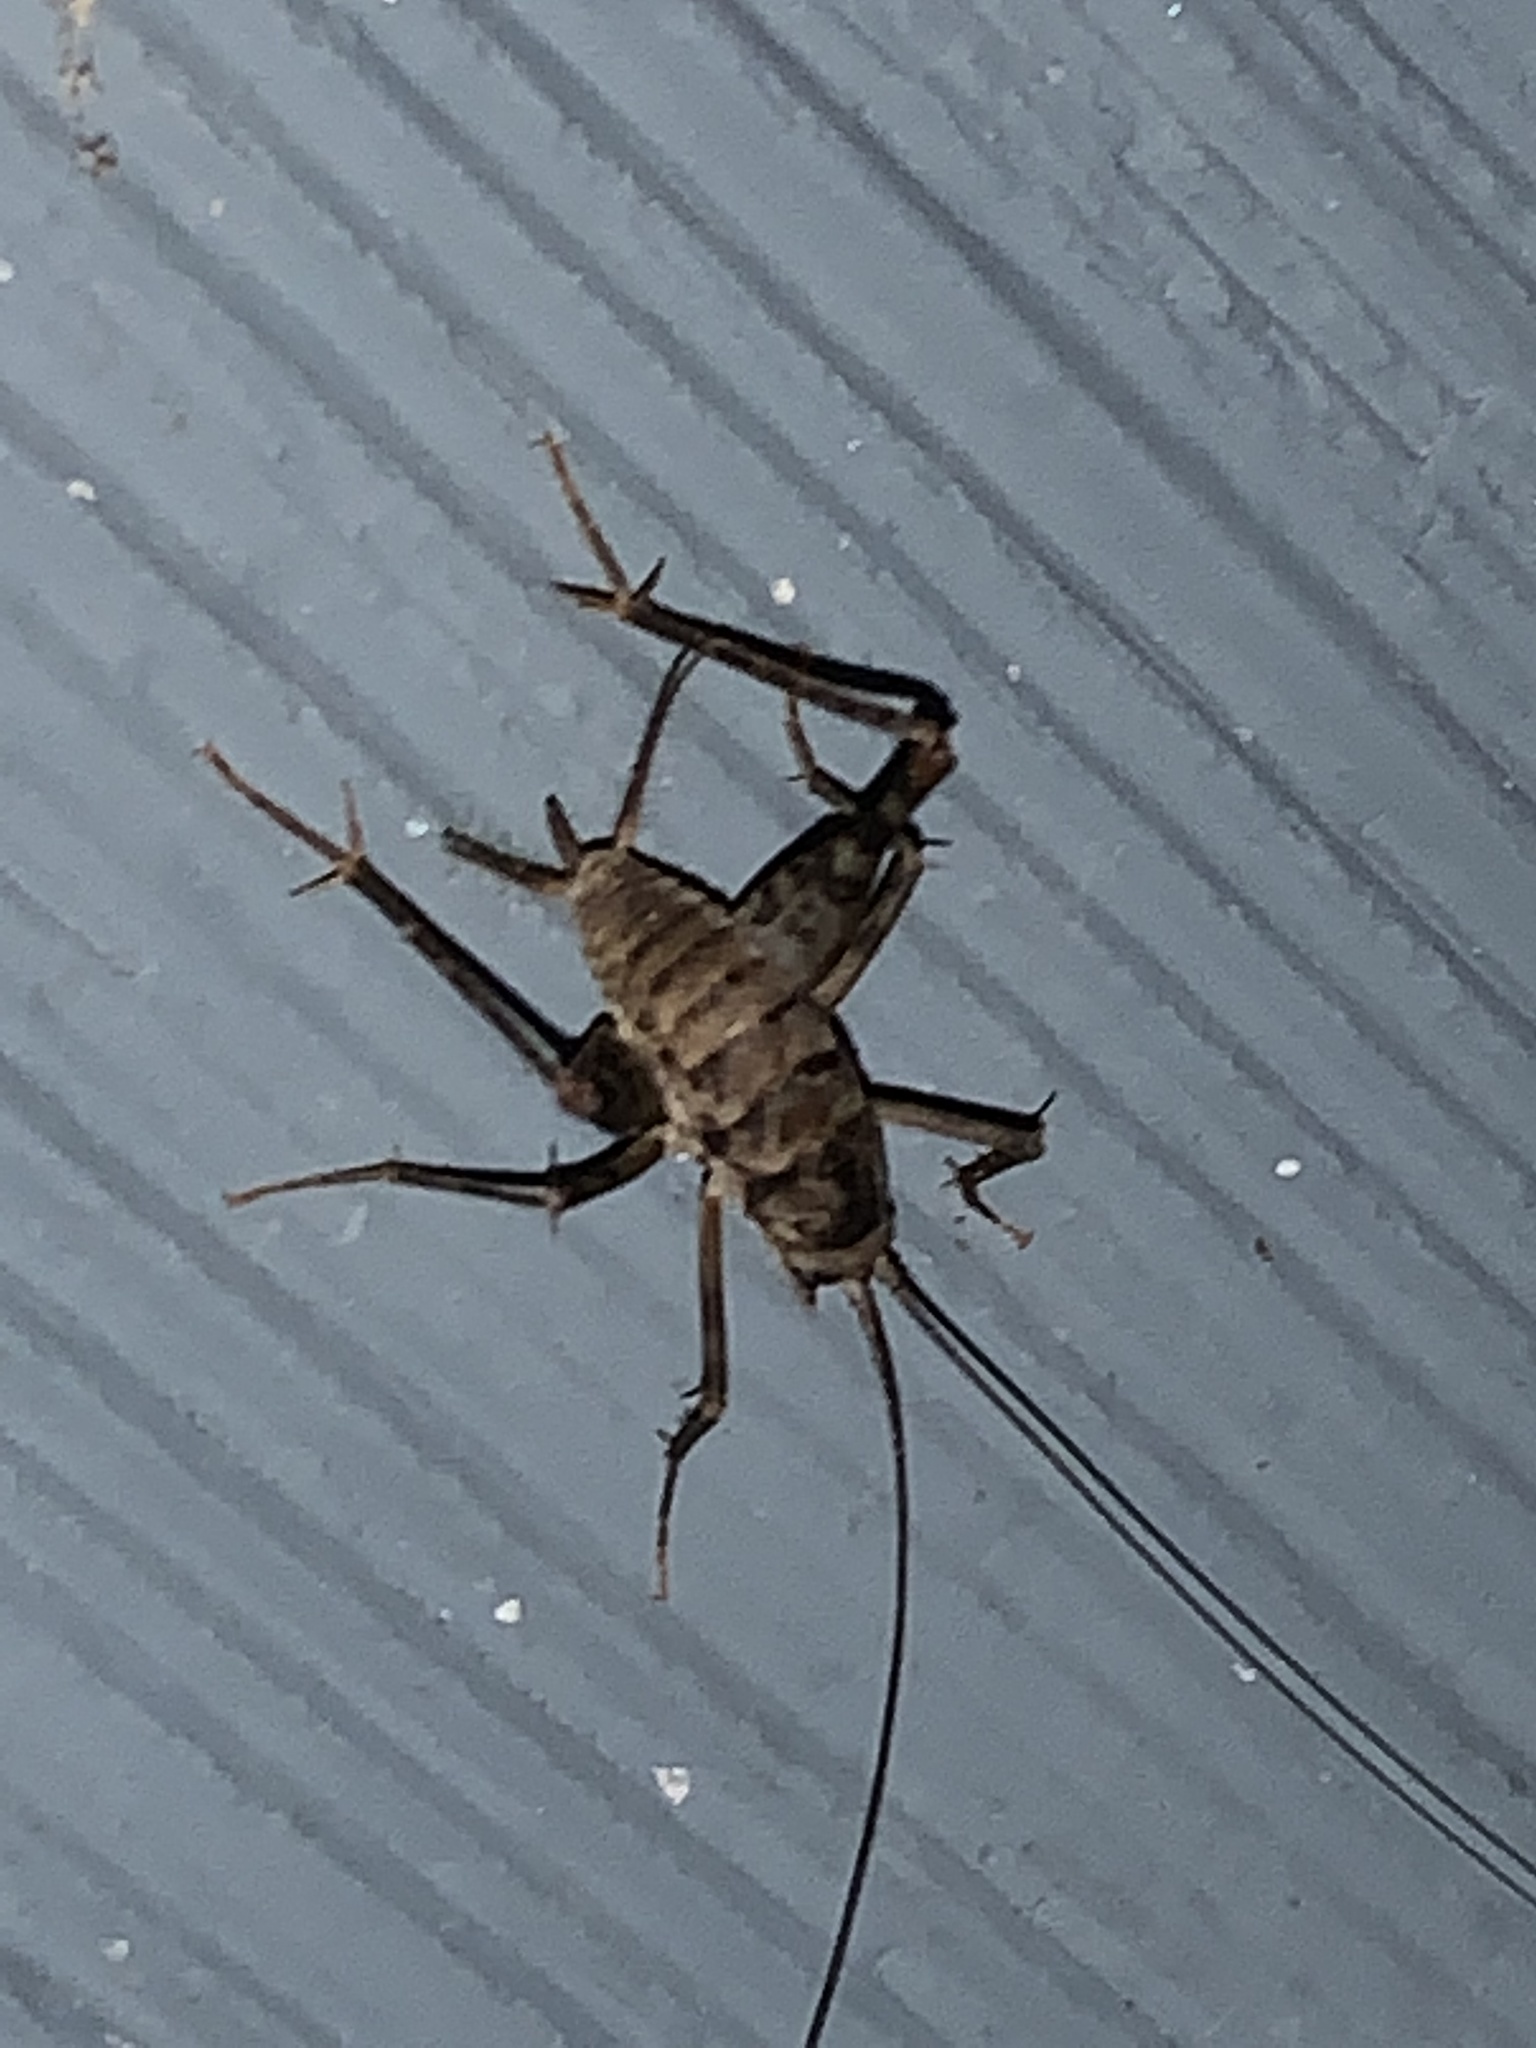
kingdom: Animalia
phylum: Arthropoda
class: Insecta
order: Orthoptera
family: Rhaphidophoridae
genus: Tachycines
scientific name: Tachycines asynamorus
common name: Greenhouse camel cricket
